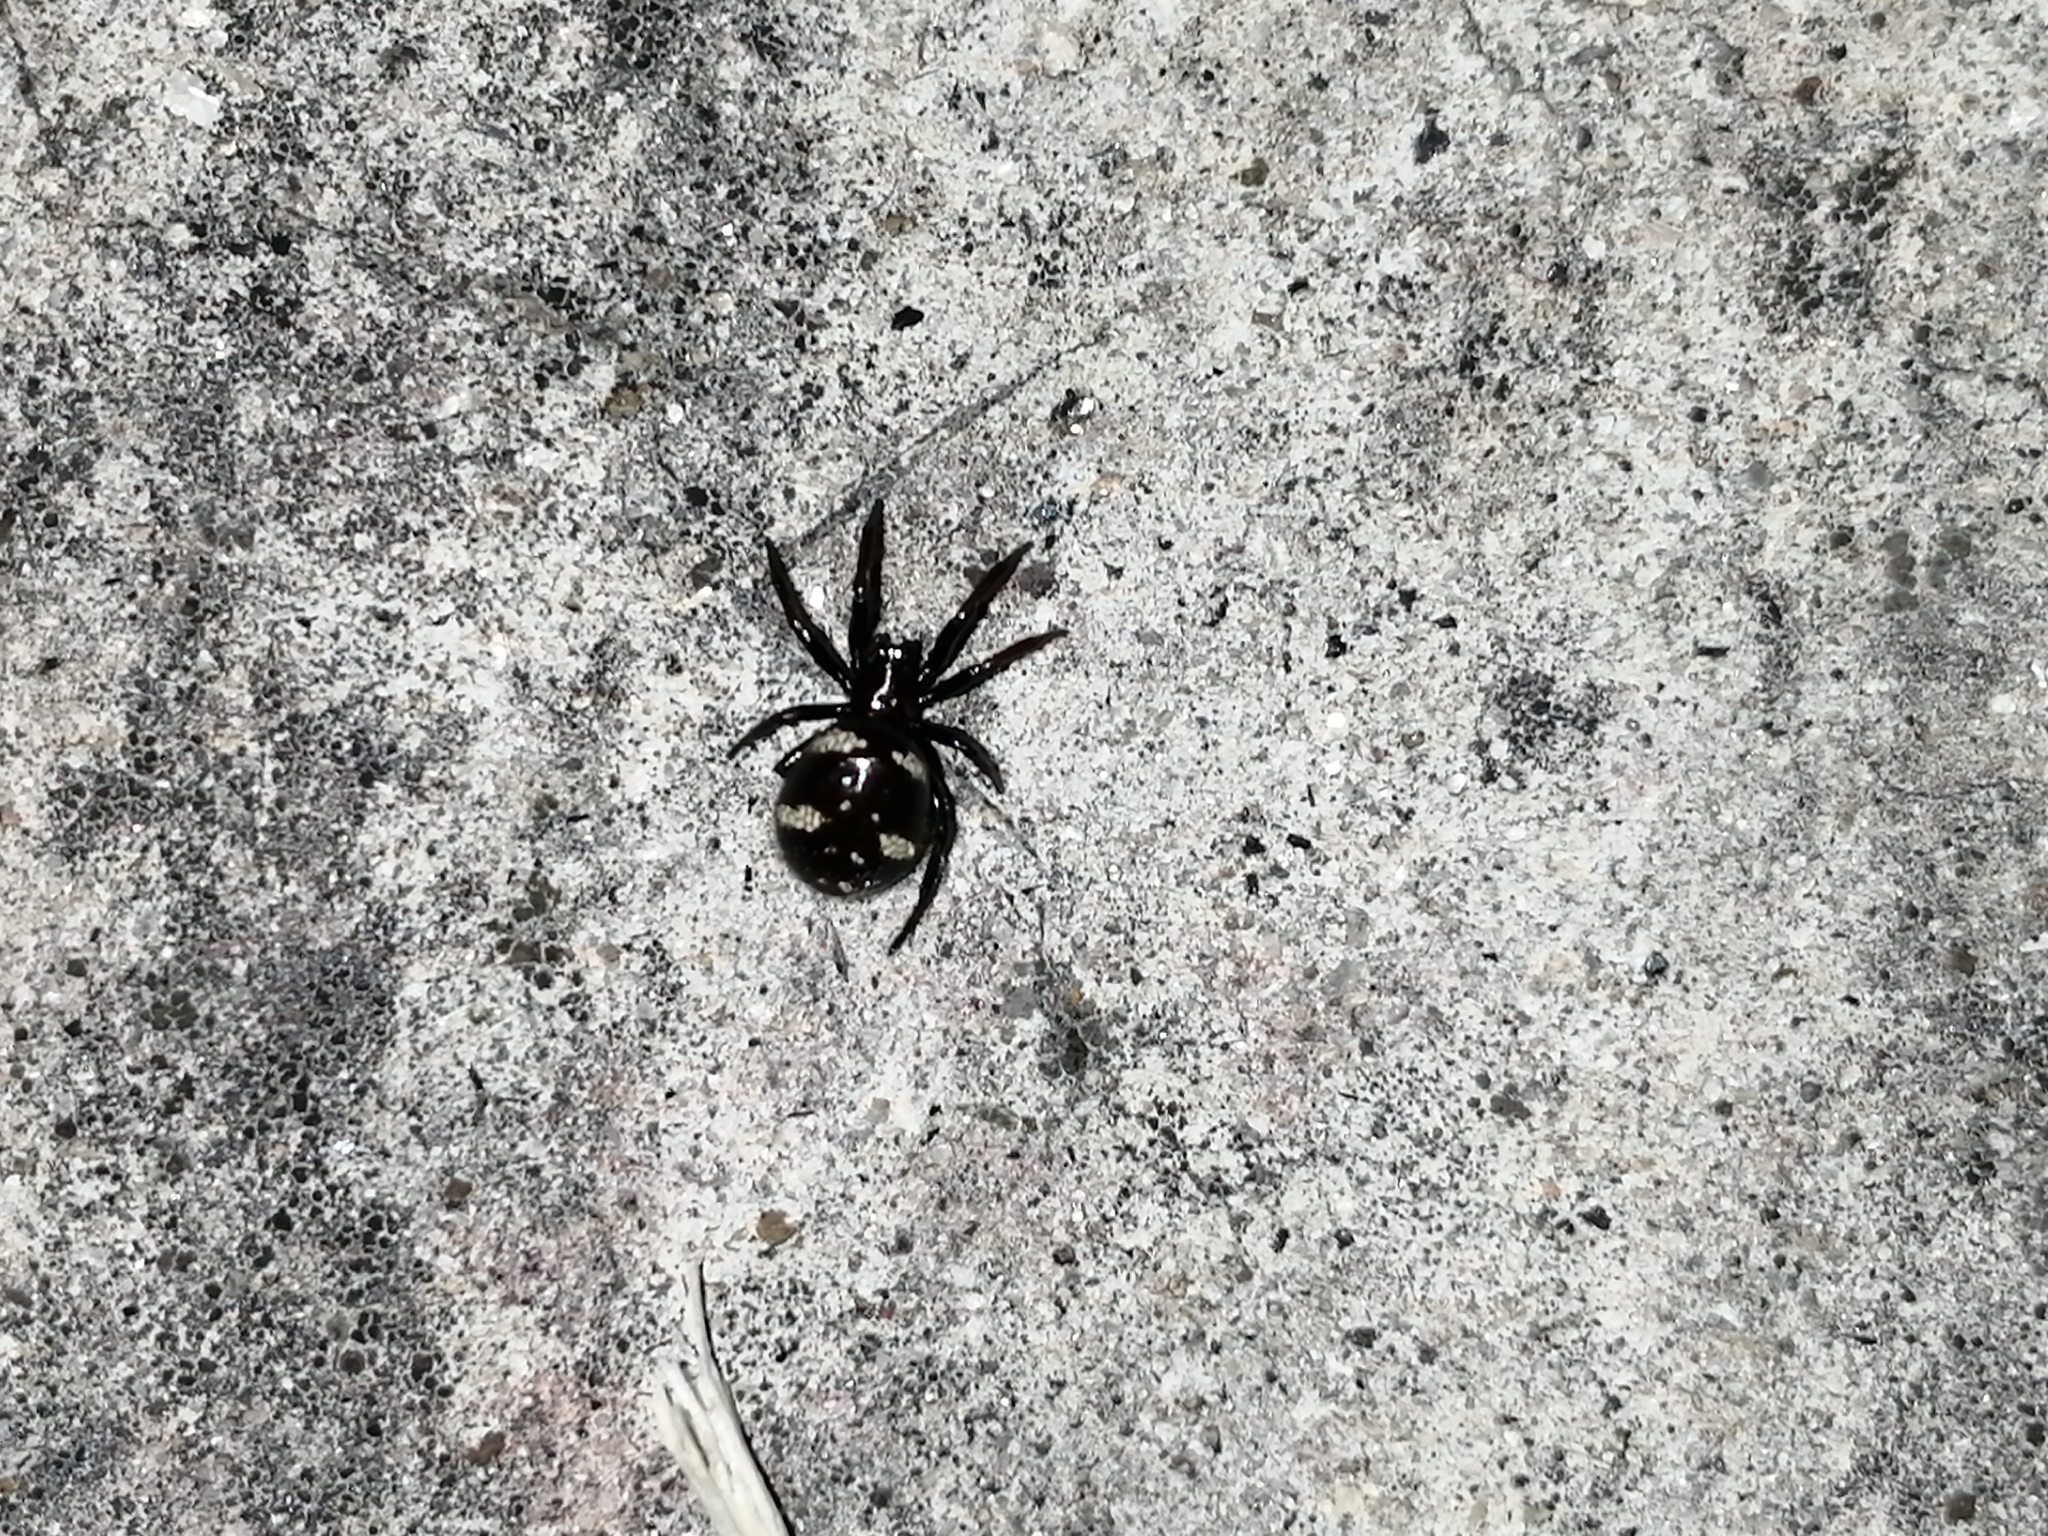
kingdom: Animalia
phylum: Arthropoda
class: Arachnida
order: Araneae
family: Theridiidae
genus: Steatoda
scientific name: Steatoda quadrimaculata
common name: Cobweb spiders
